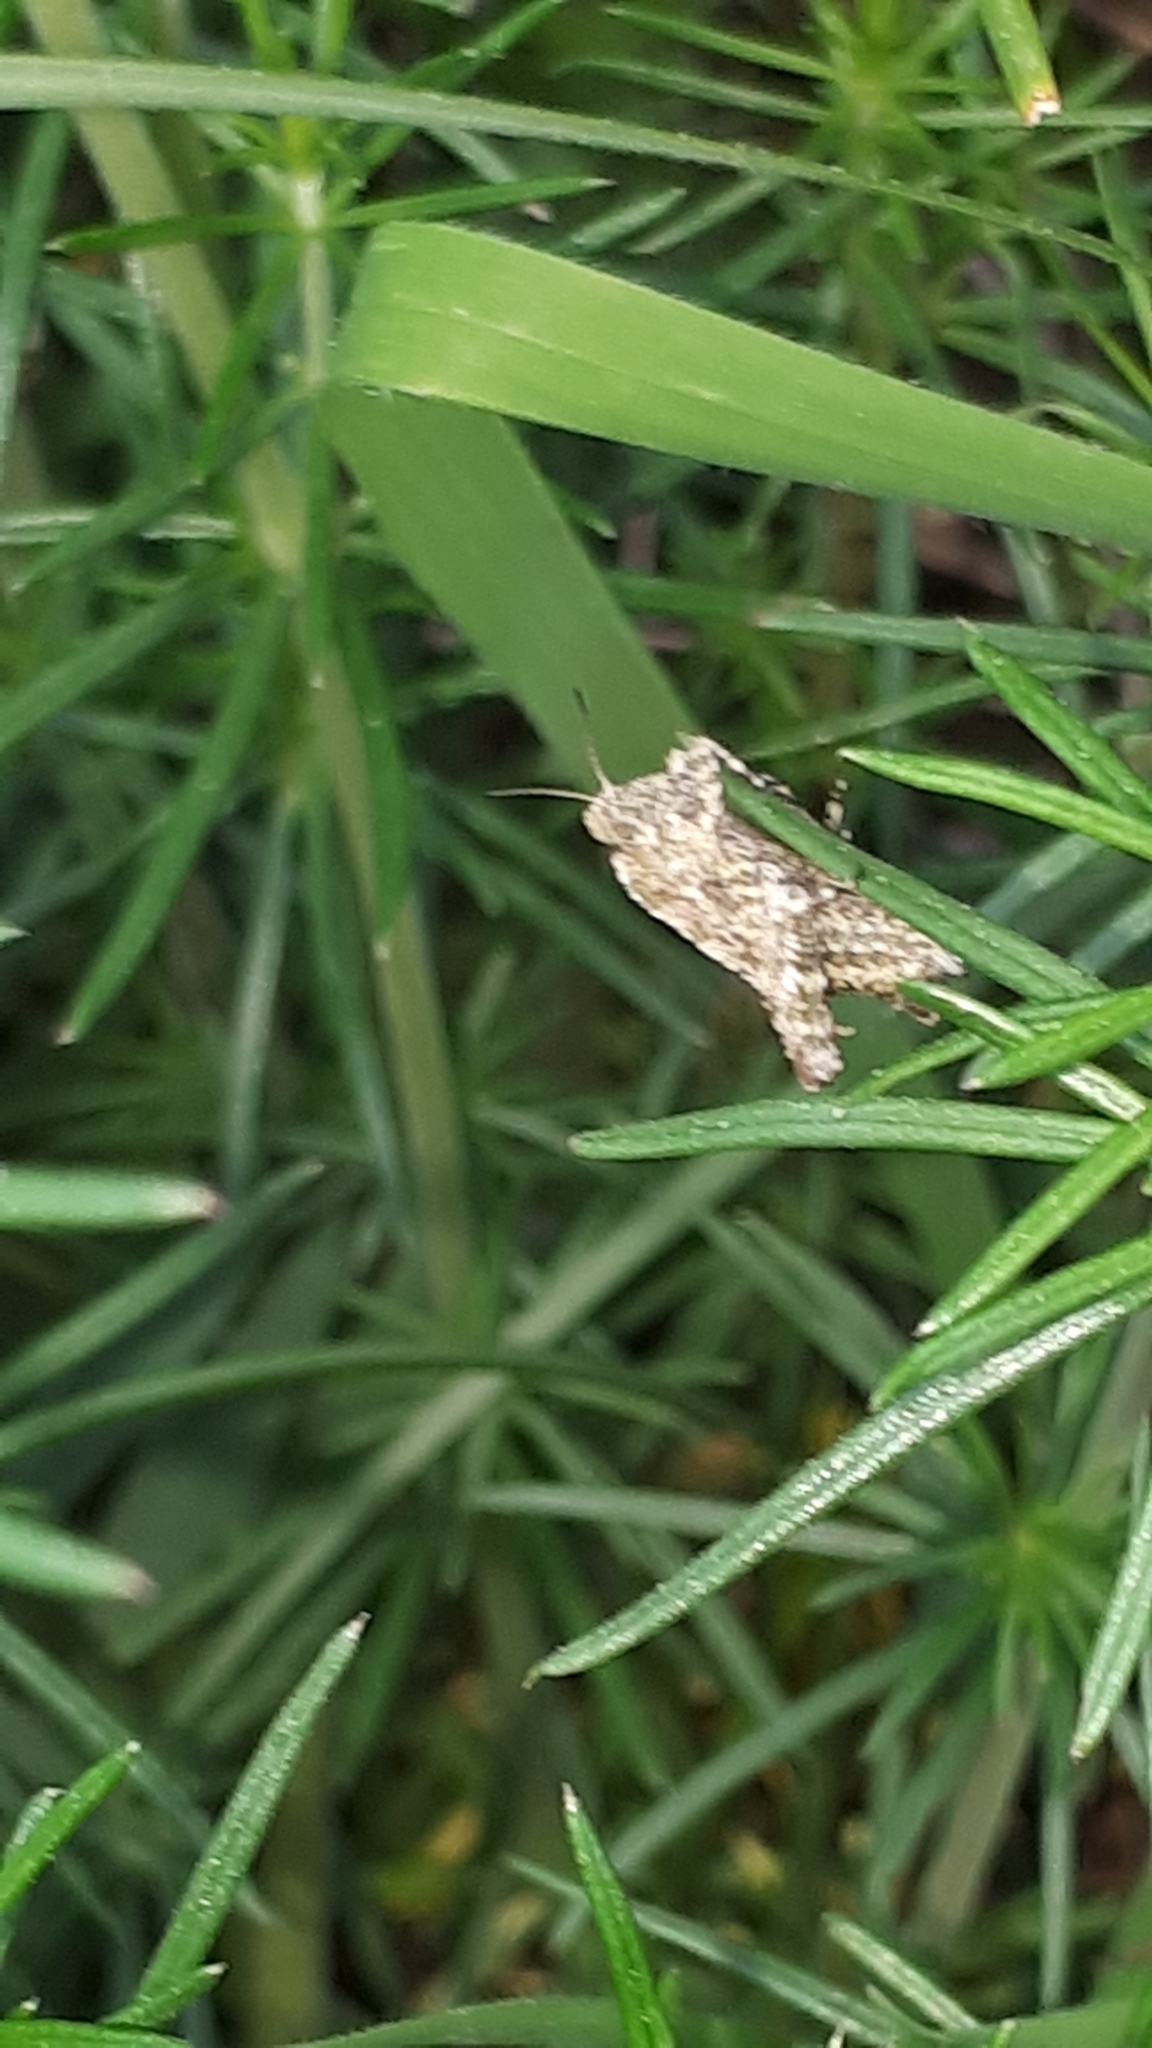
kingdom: Animalia
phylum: Arthropoda
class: Insecta
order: Orthoptera
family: Tetrigidae
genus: Tetrix
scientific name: Tetrix tenuicornis
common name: Long-horned groundhopper
